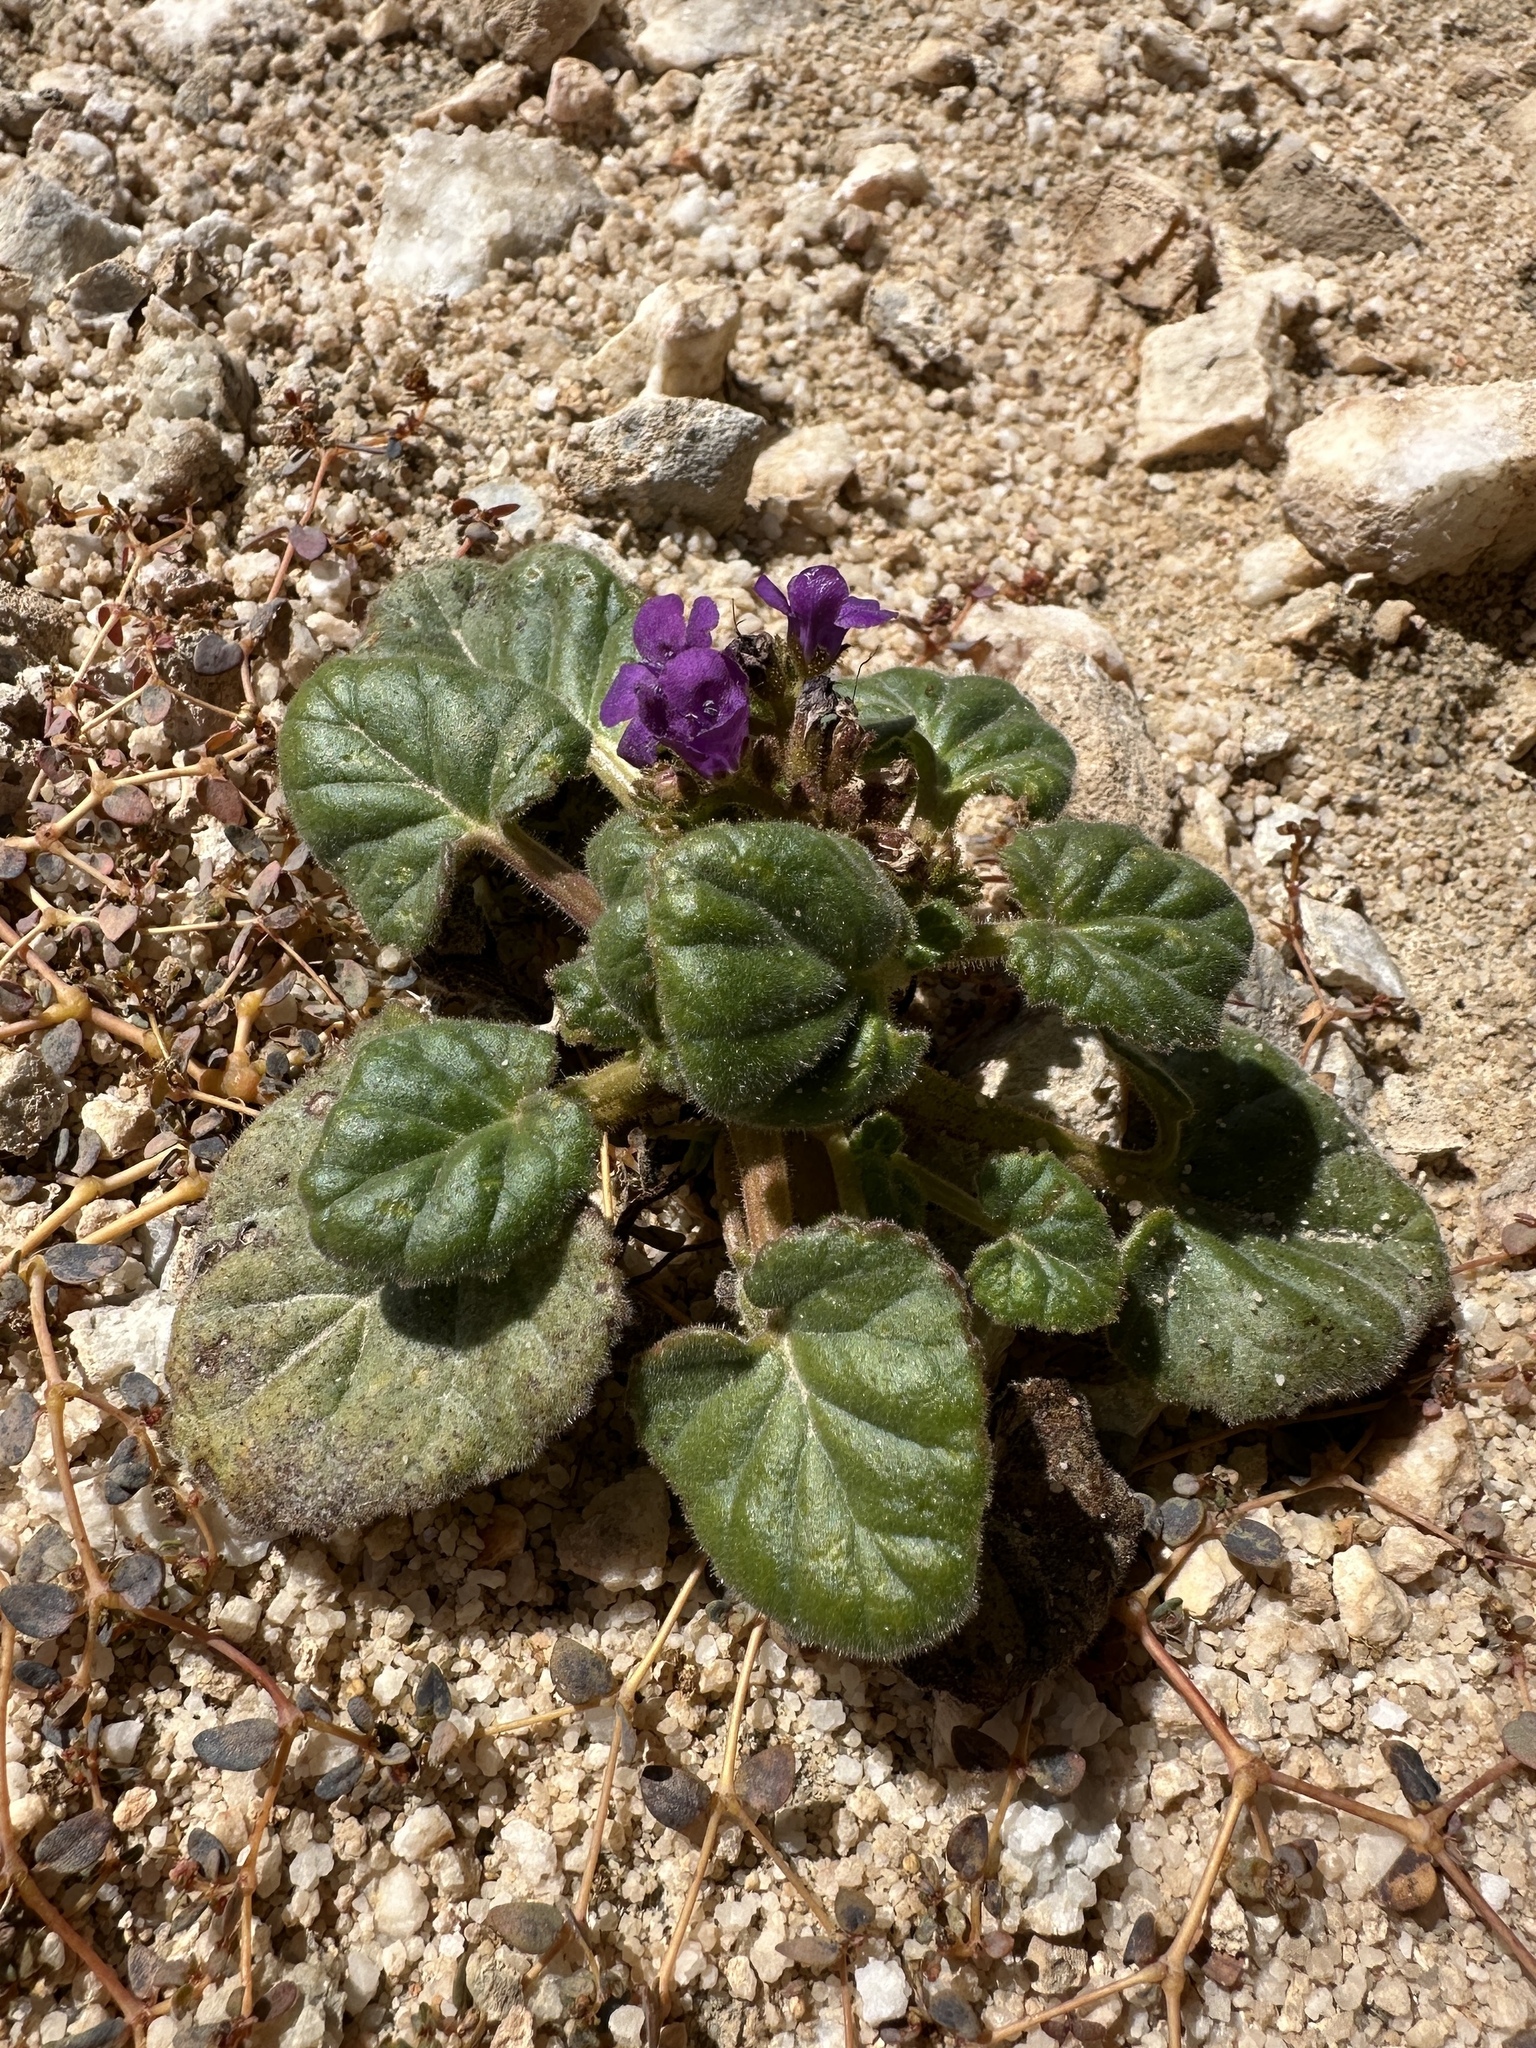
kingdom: Plantae
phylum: Tracheophyta
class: Magnoliopsida
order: Boraginales
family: Hydrophyllaceae
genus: Phacelia
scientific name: Phacelia calthifolia
